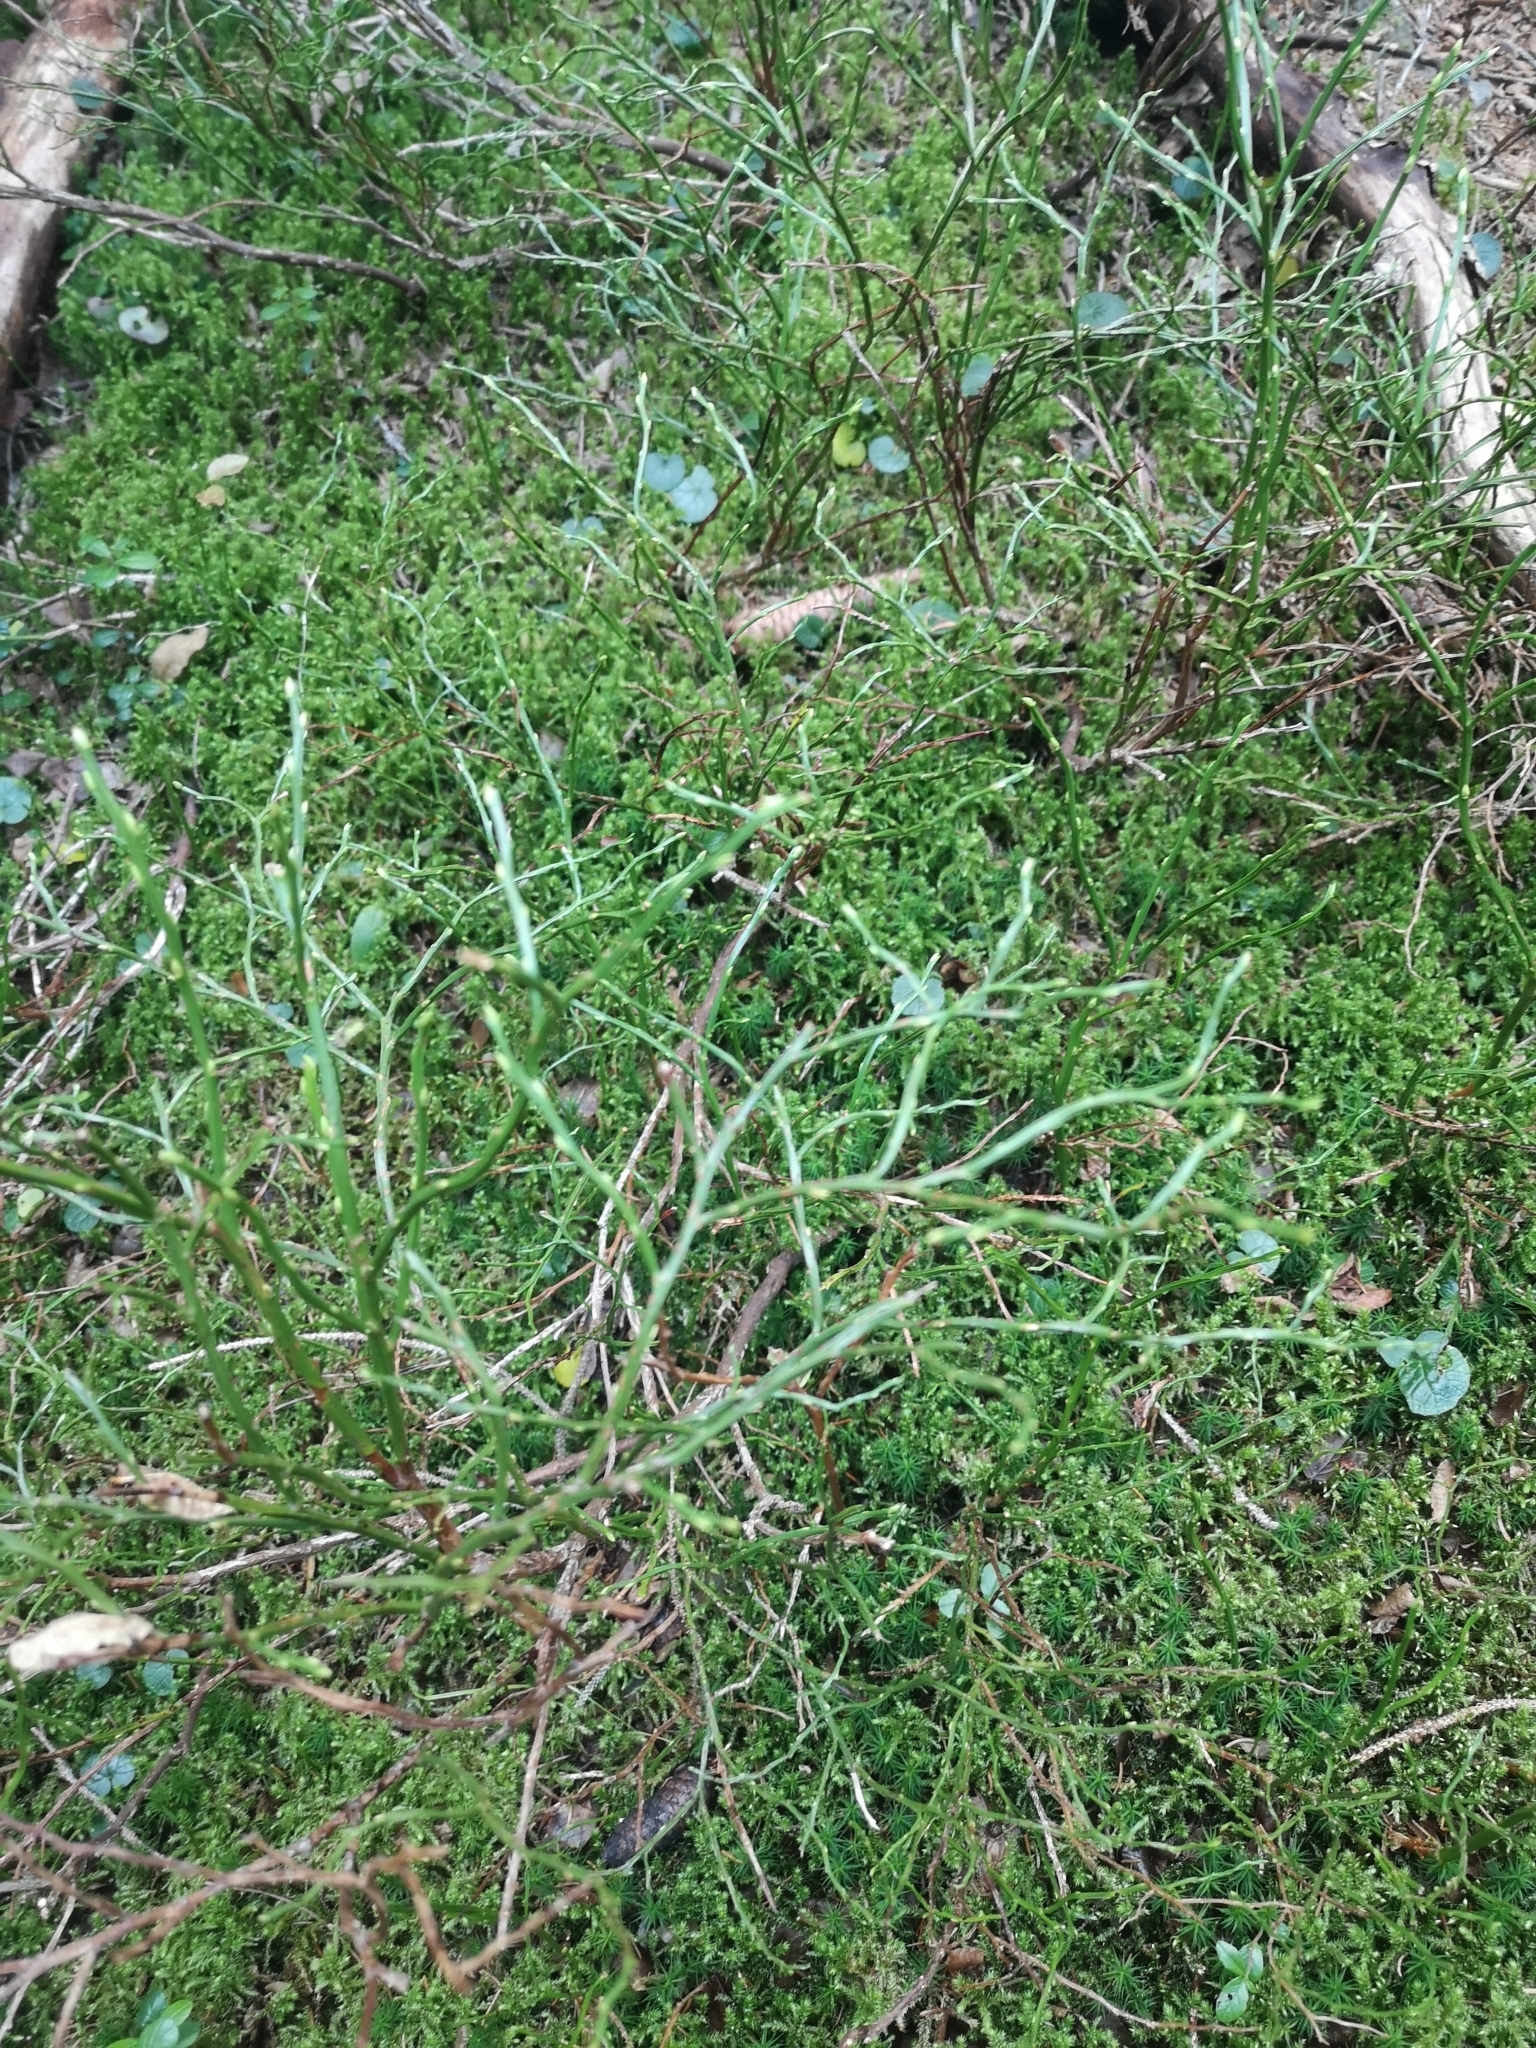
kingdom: Plantae
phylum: Tracheophyta
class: Magnoliopsida
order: Ericales
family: Ericaceae
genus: Vaccinium
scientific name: Vaccinium myrtillus
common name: Bilberry
